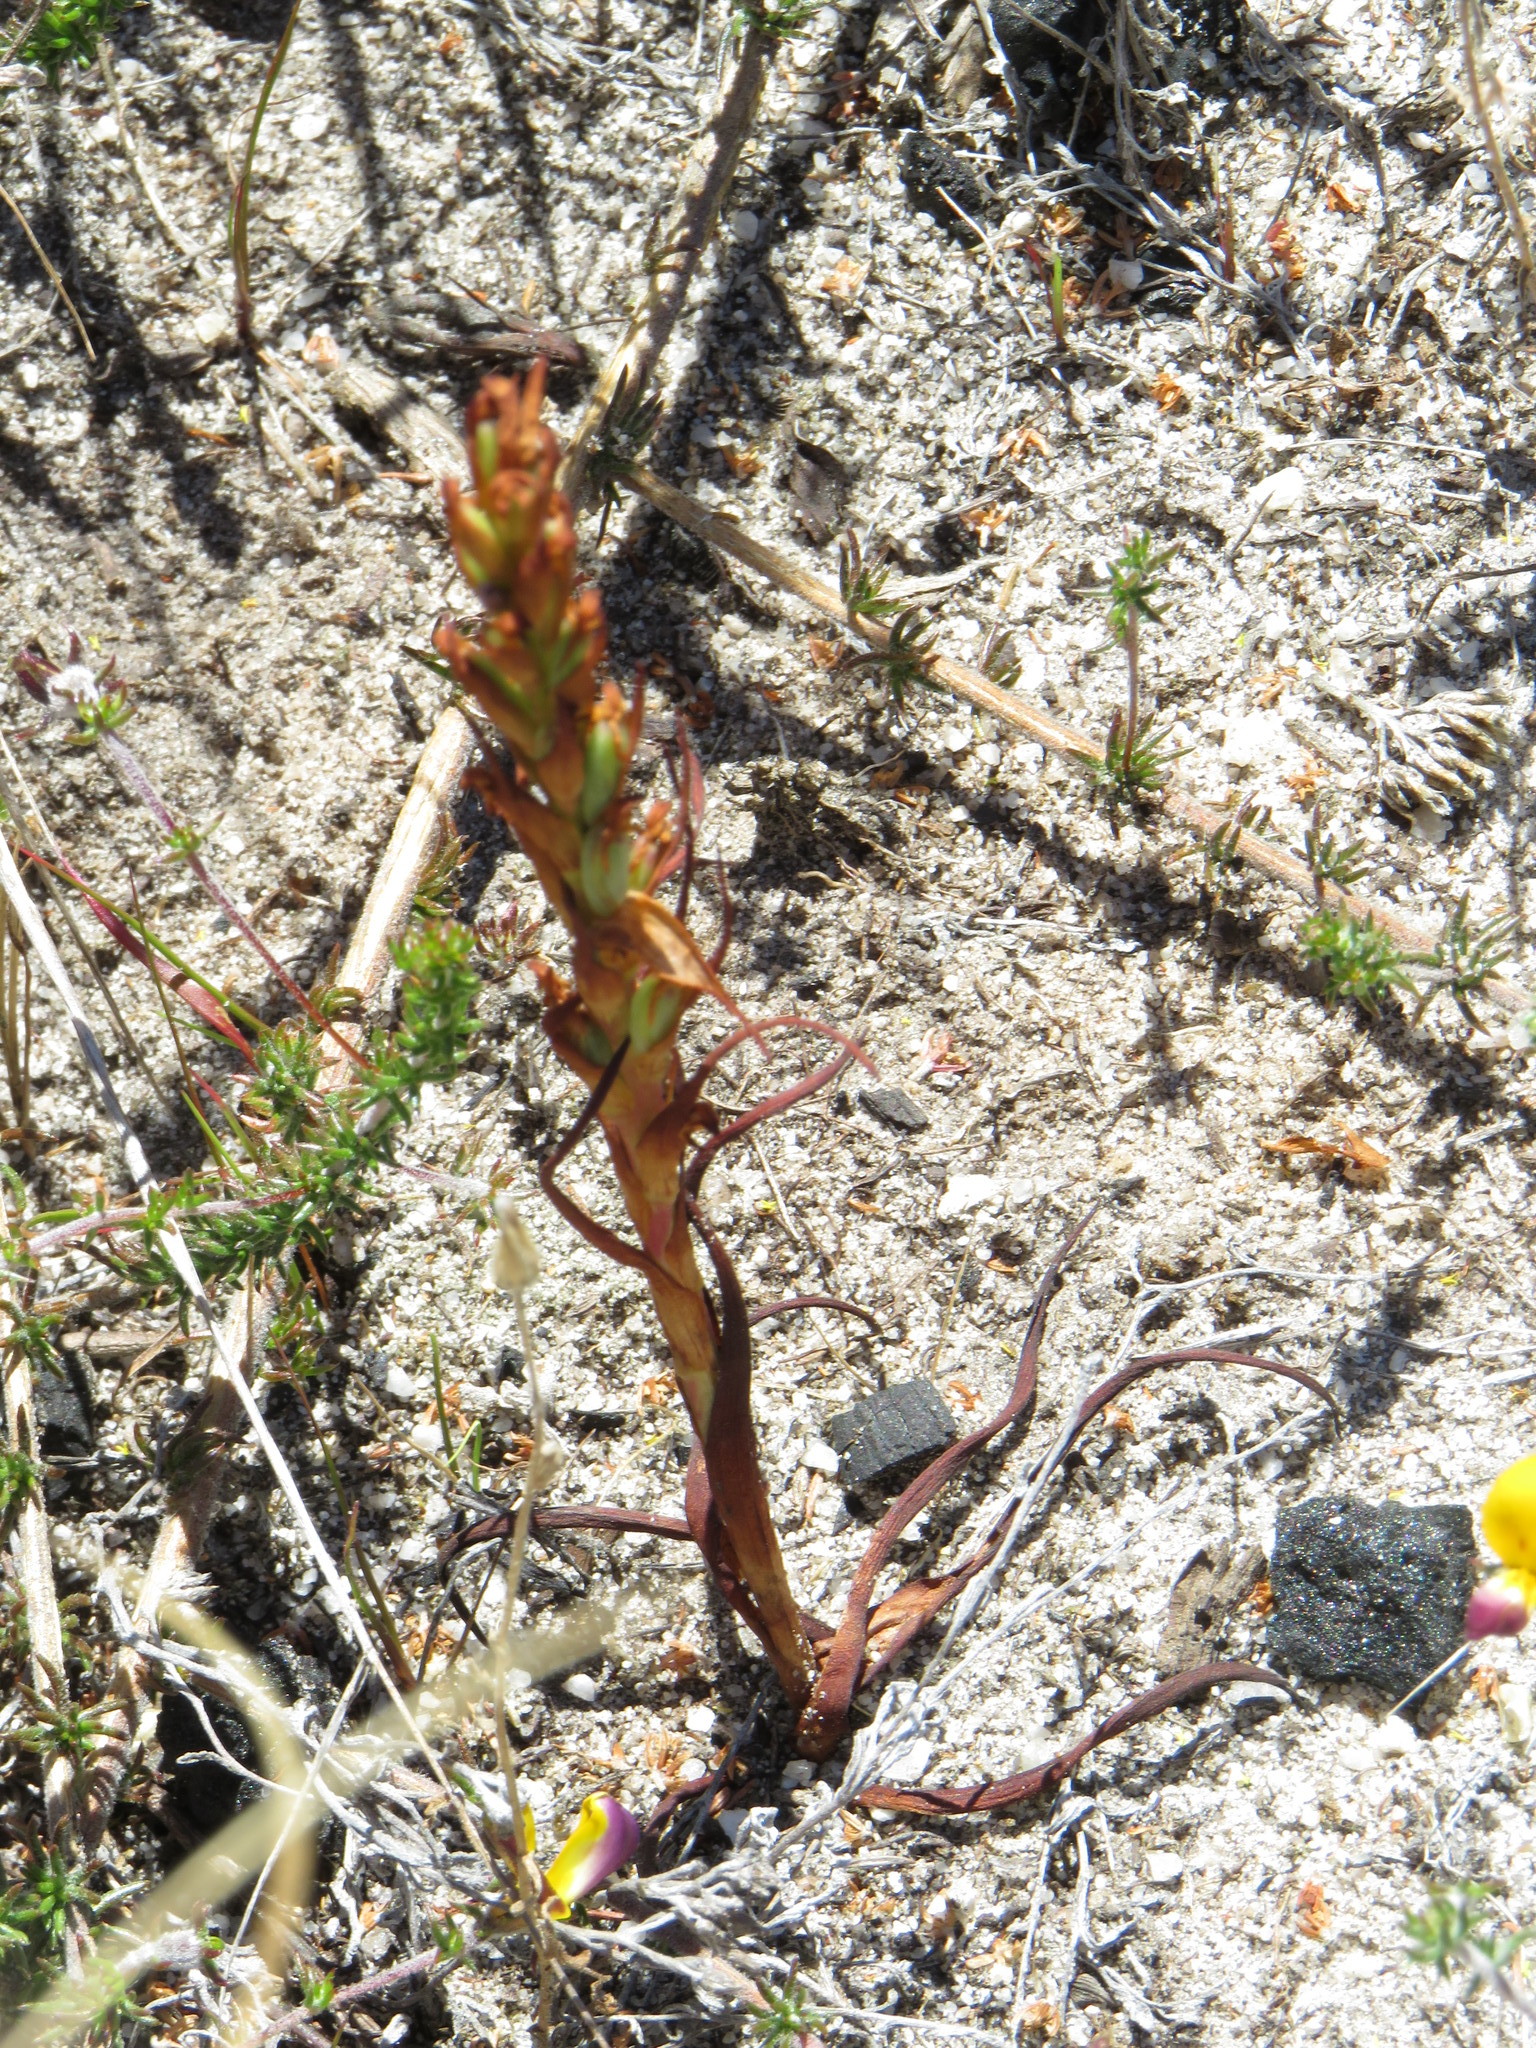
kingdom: Plantae
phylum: Tracheophyta
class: Liliopsida
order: Asparagales
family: Orchidaceae
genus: Disa
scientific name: Disa bracteata
